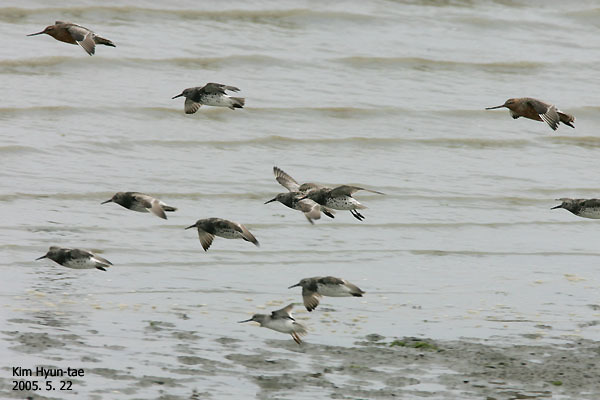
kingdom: Animalia
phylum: Chordata
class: Aves
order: Charadriiformes
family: Scolopacidae
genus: Calidris
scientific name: Calidris tenuirostris
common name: Great knot
